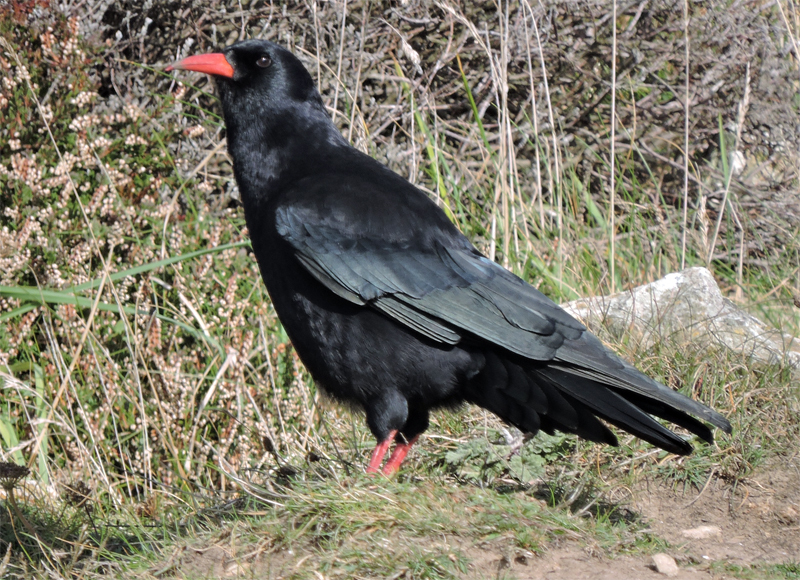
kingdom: Animalia
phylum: Chordata
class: Aves
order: Passeriformes
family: Corvidae
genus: Pyrrhocorax
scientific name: Pyrrhocorax pyrrhocorax
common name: Red-billed chough
